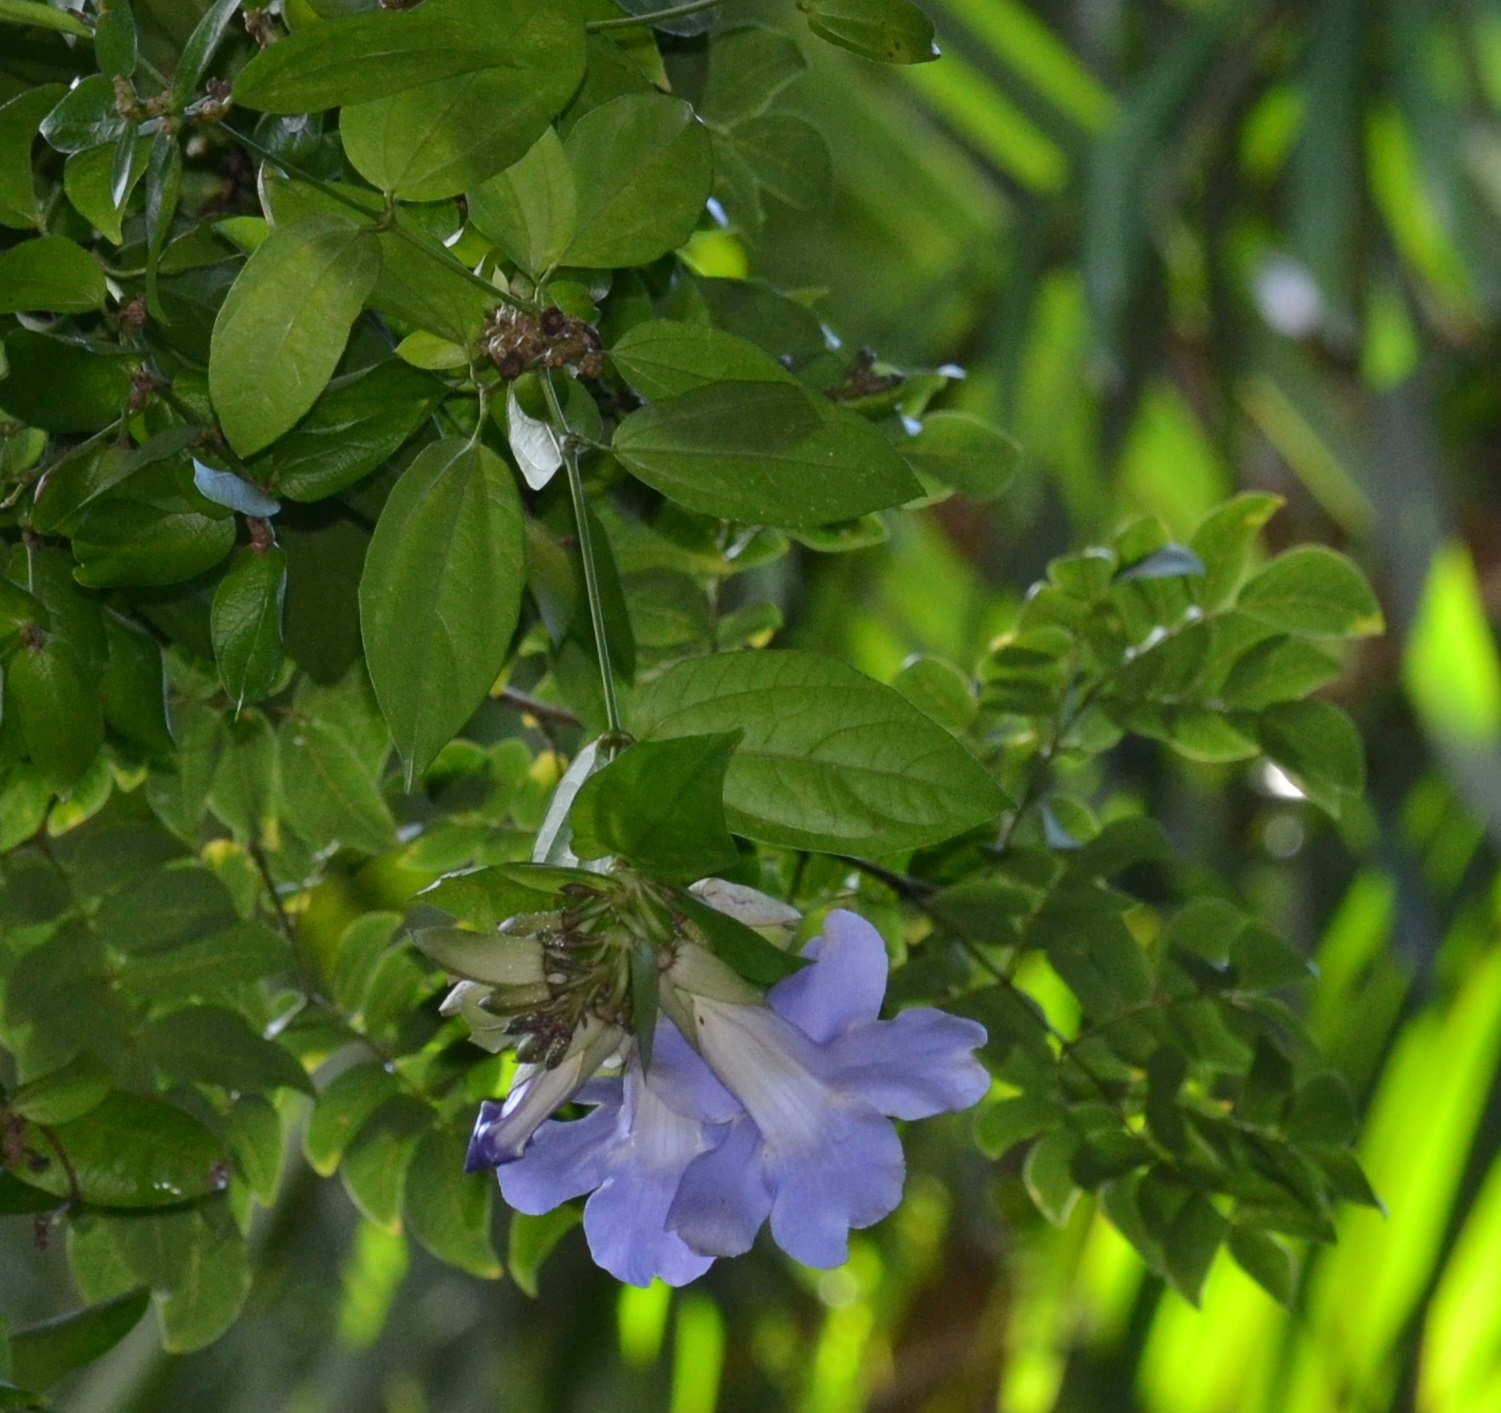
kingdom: Plantae
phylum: Tracheophyta
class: Magnoliopsida
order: Lamiales
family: Acanthaceae
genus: Thunbergia
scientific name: Thunbergia grandiflora
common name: Bengal trumpet
